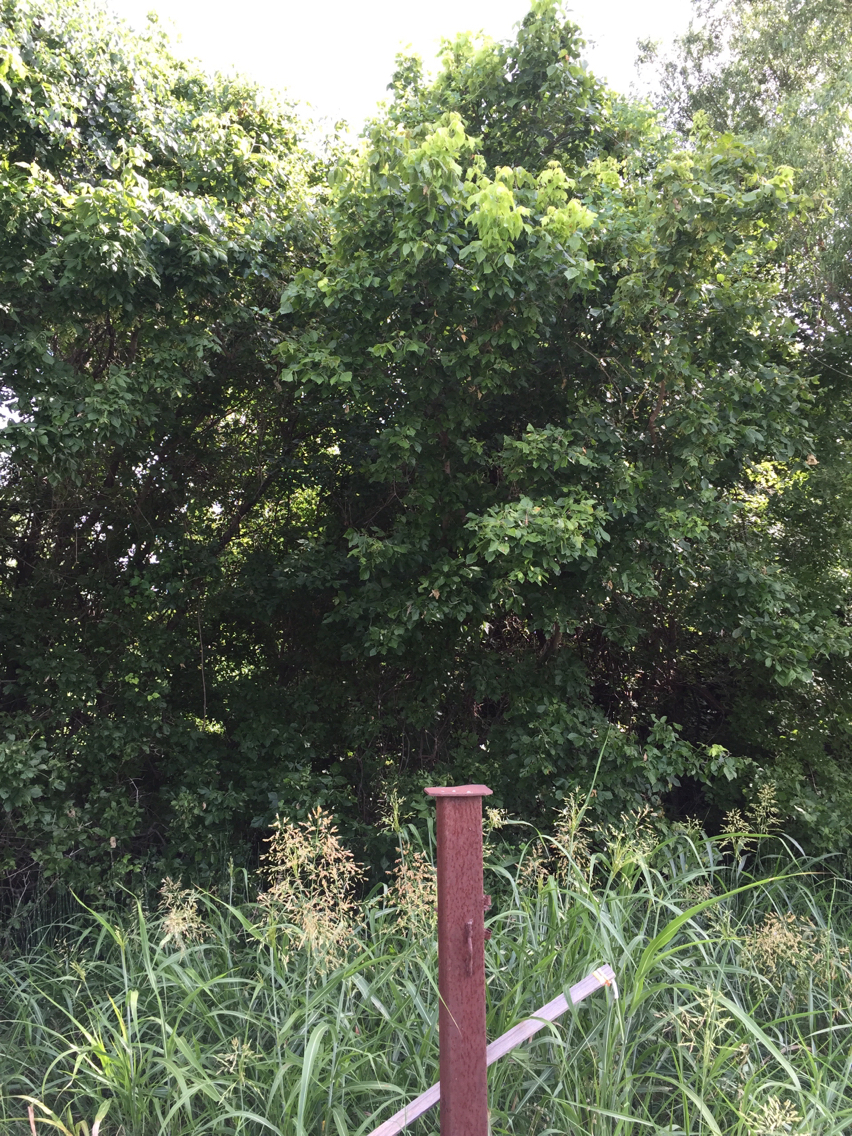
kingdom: Plantae
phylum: Tracheophyta
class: Magnoliopsida
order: Sapindales
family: Sapindaceae
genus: Acer
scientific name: Acer negundo
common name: Ashleaf maple
